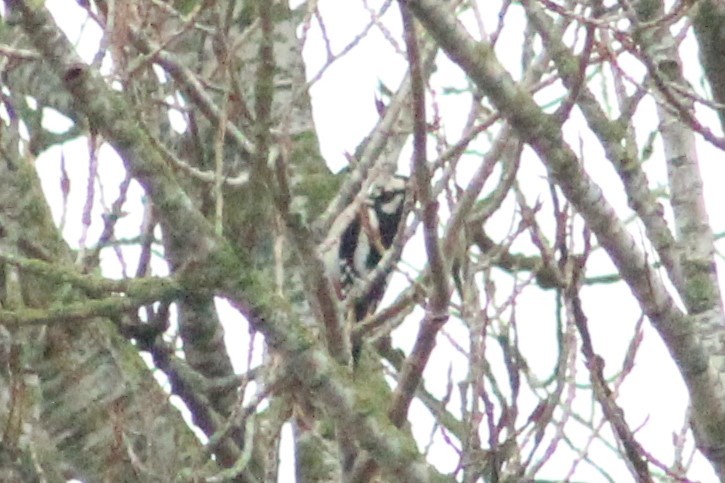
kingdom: Animalia
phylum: Chordata
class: Aves
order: Piciformes
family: Picidae
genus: Dendrocopos
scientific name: Dendrocopos major
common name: Great spotted woodpecker
